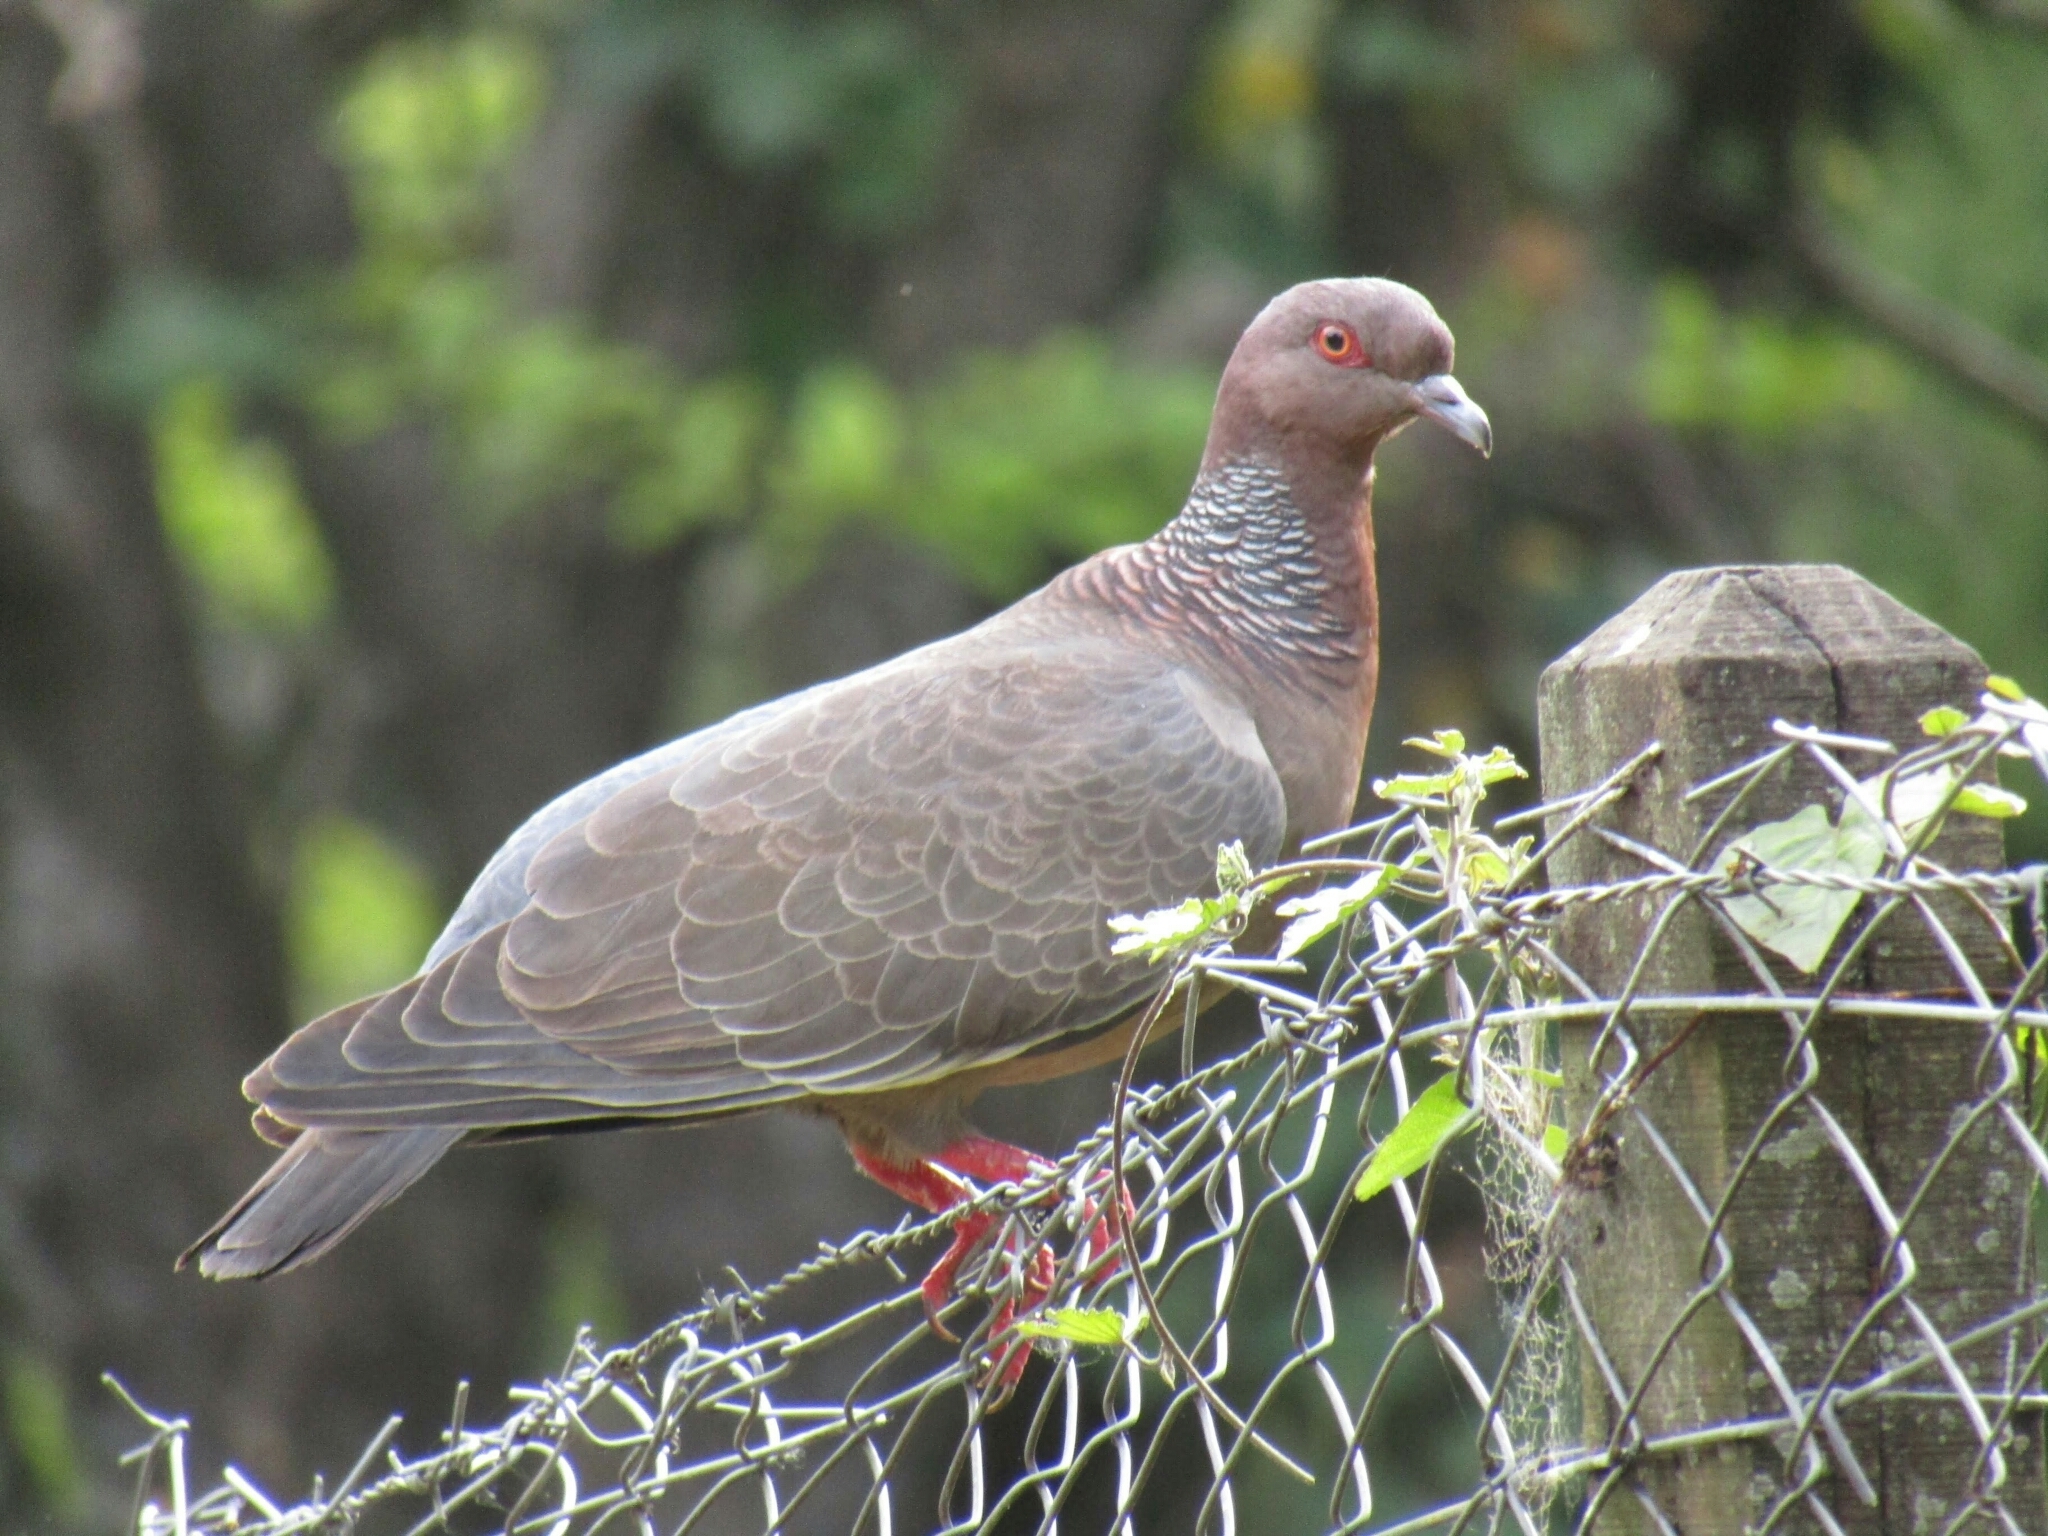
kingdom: Animalia
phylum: Chordata
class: Aves
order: Columbiformes
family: Columbidae
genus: Patagioenas
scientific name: Patagioenas picazuro
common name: Picazuro pigeon
